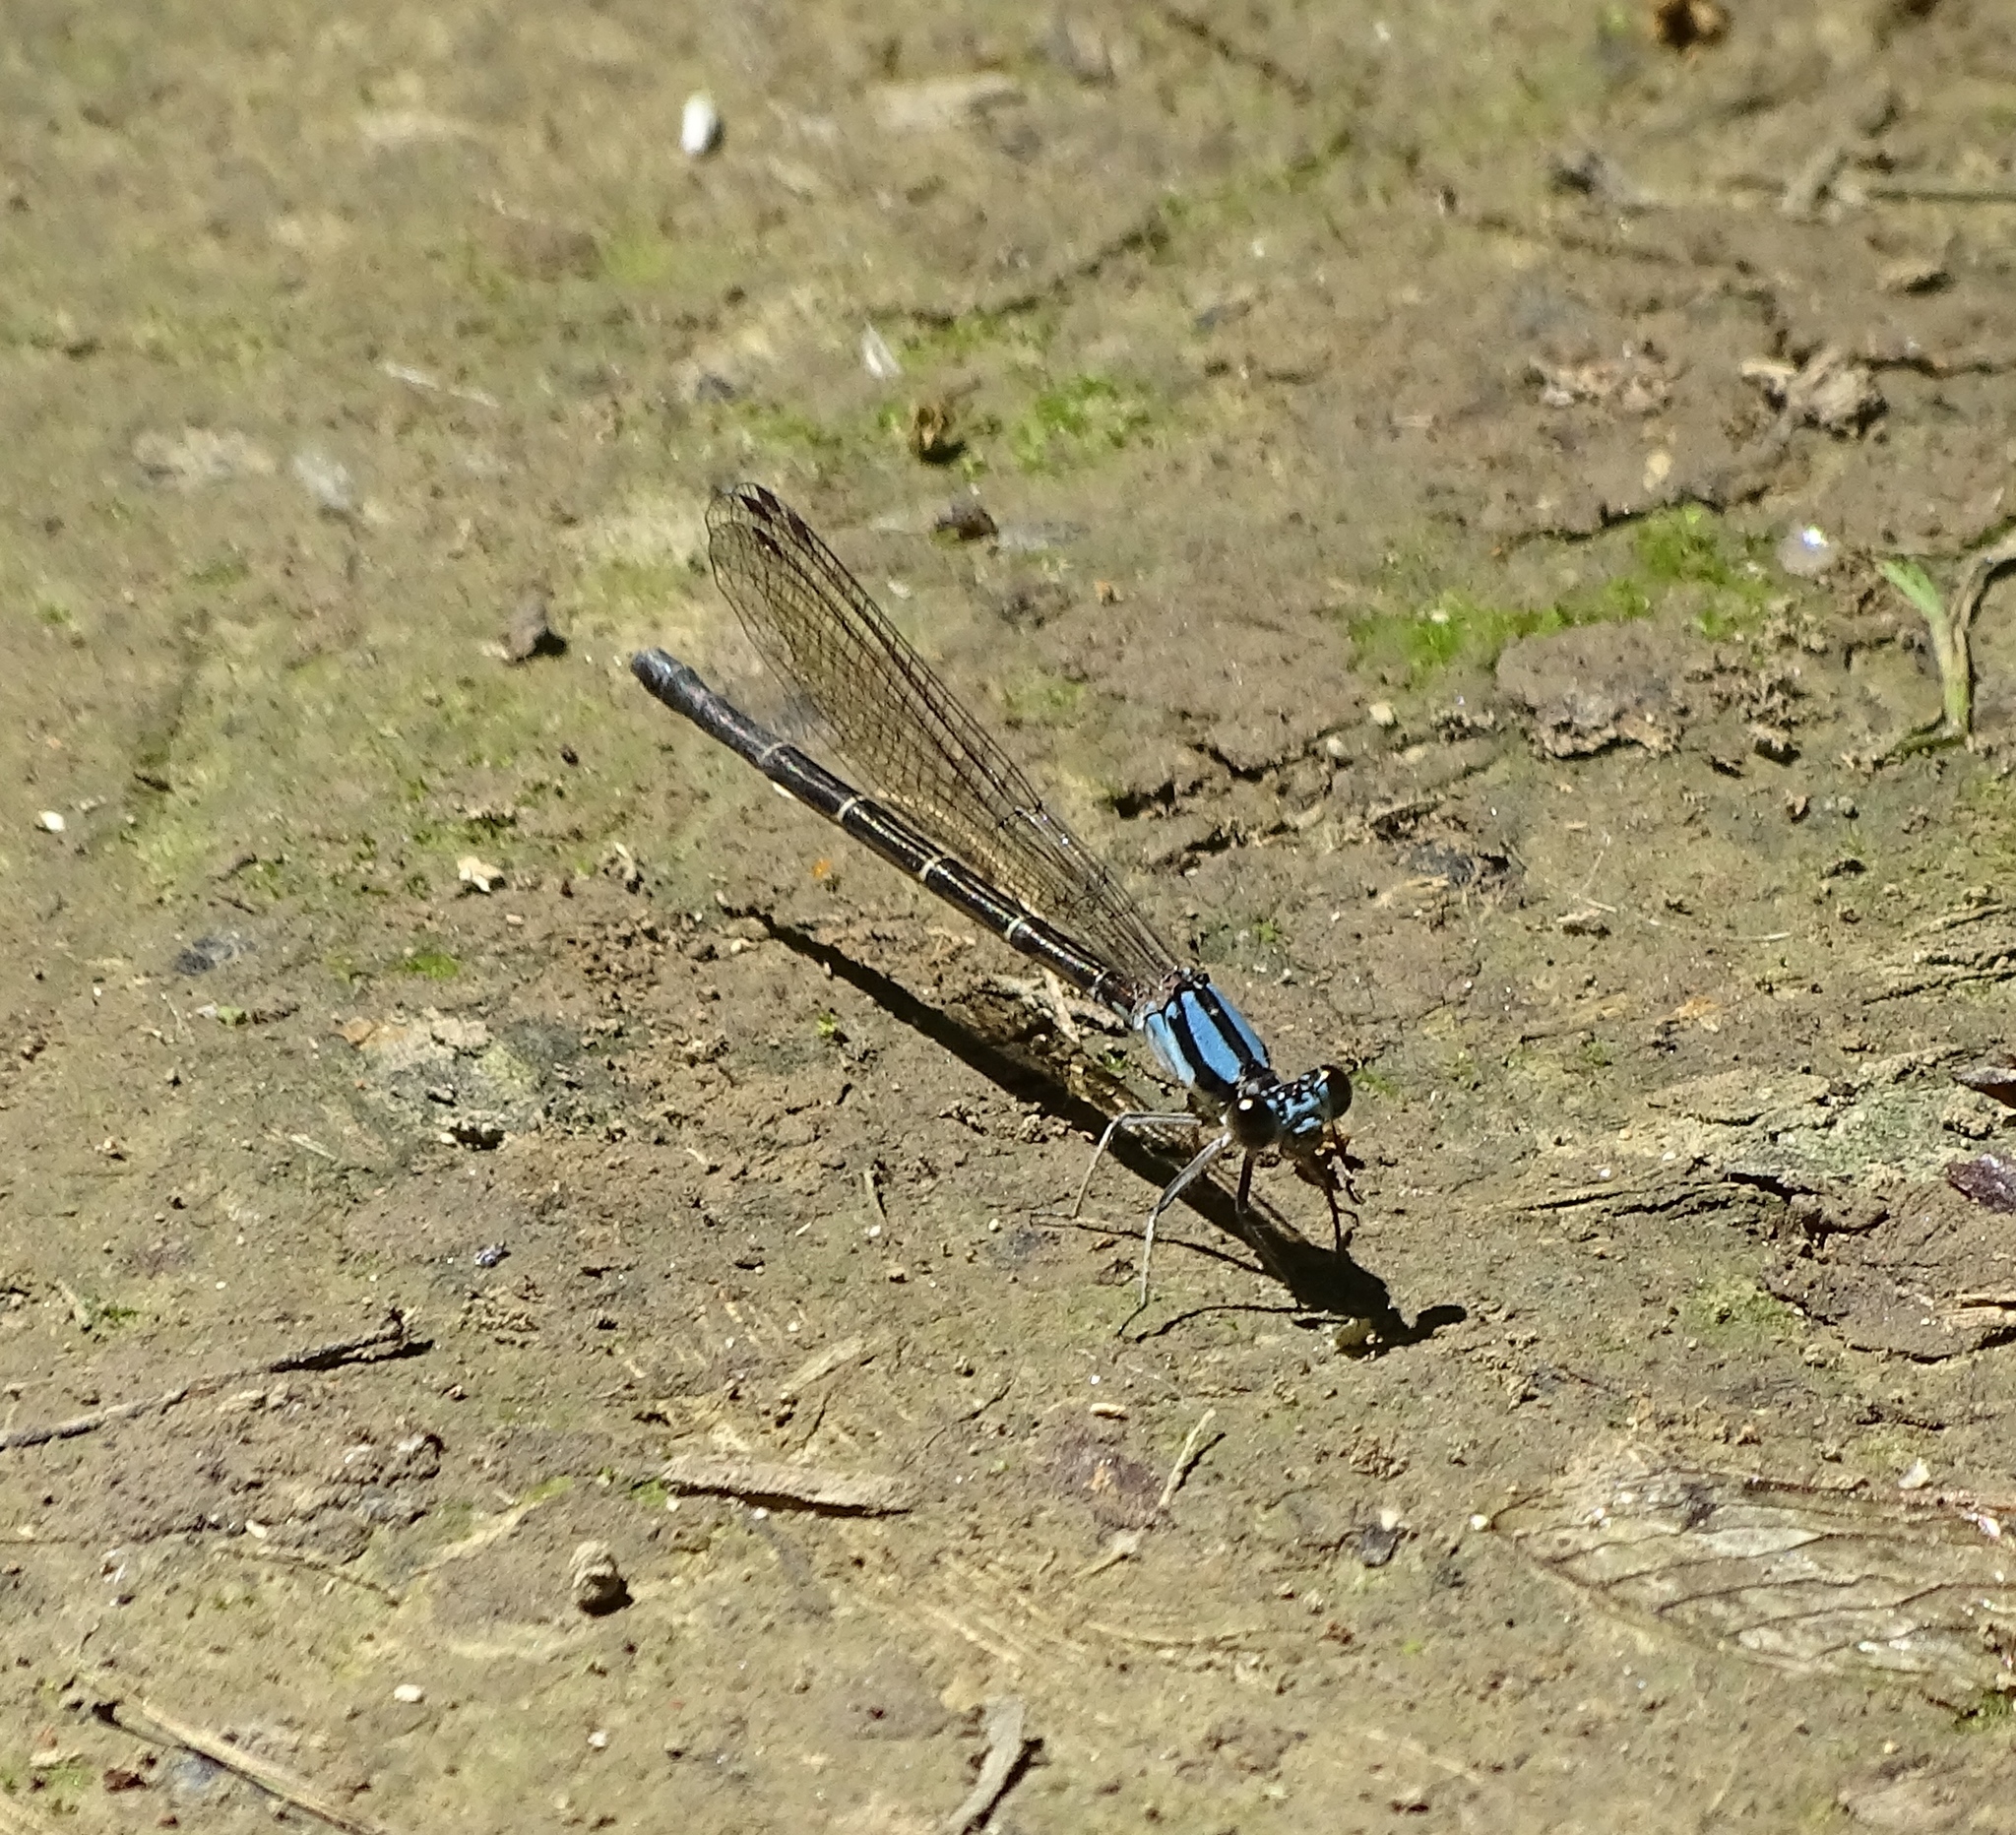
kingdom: Animalia
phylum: Arthropoda
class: Insecta
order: Odonata
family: Coenagrionidae
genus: Argia
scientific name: Argia tibialis
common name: Blue-tipped dancer
